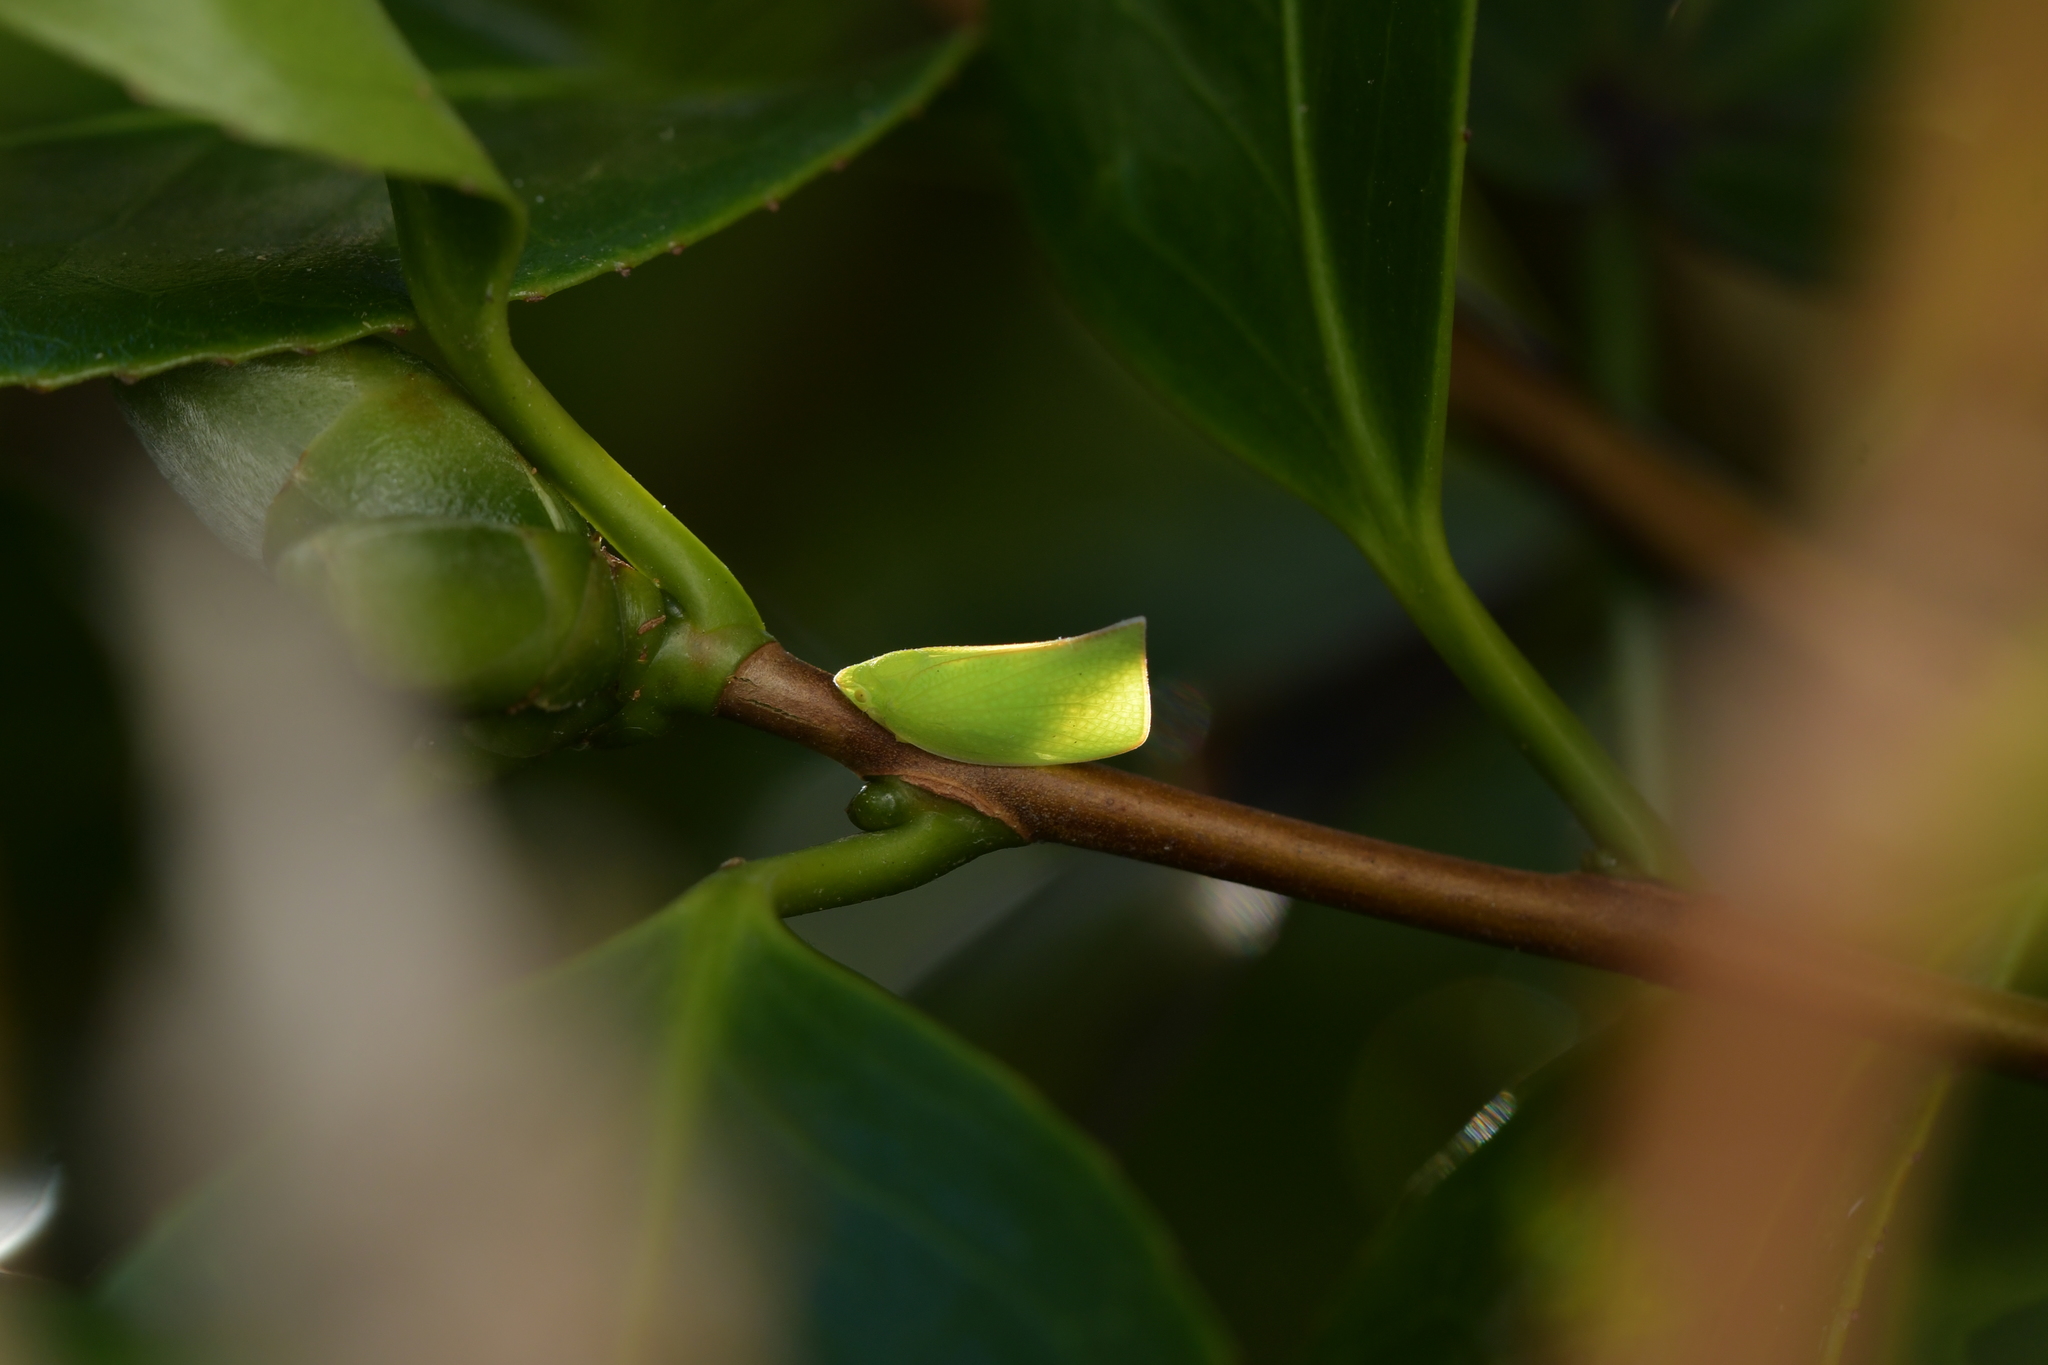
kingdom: Animalia
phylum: Arthropoda
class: Insecta
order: Hemiptera
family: Flatidae
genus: Siphanta
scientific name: Siphanta acuta
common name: Torpedo bug
